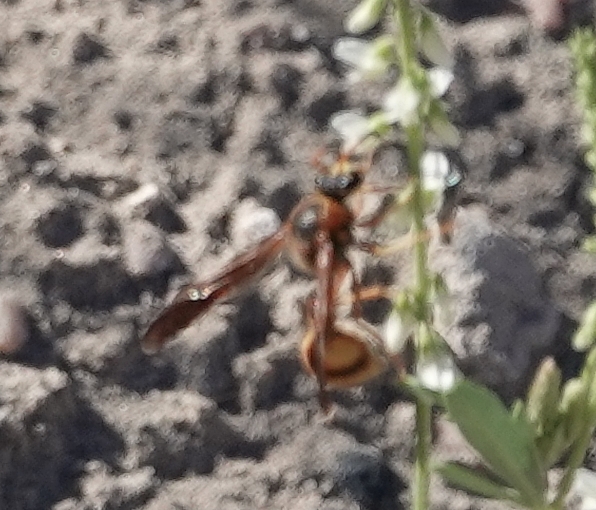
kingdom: Animalia
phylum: Arthropoda
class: Insecta
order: Hymenoptera
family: Vespidae
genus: Eumenes
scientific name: Eumenes bollii
